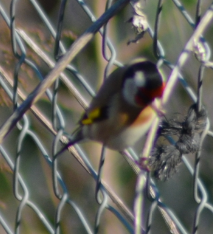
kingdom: Animalia
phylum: Chordata
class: Aves
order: Passeriformes
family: Fringillidae
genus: Carduelis
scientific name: Carduelis carduelis
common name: European goldfinch
